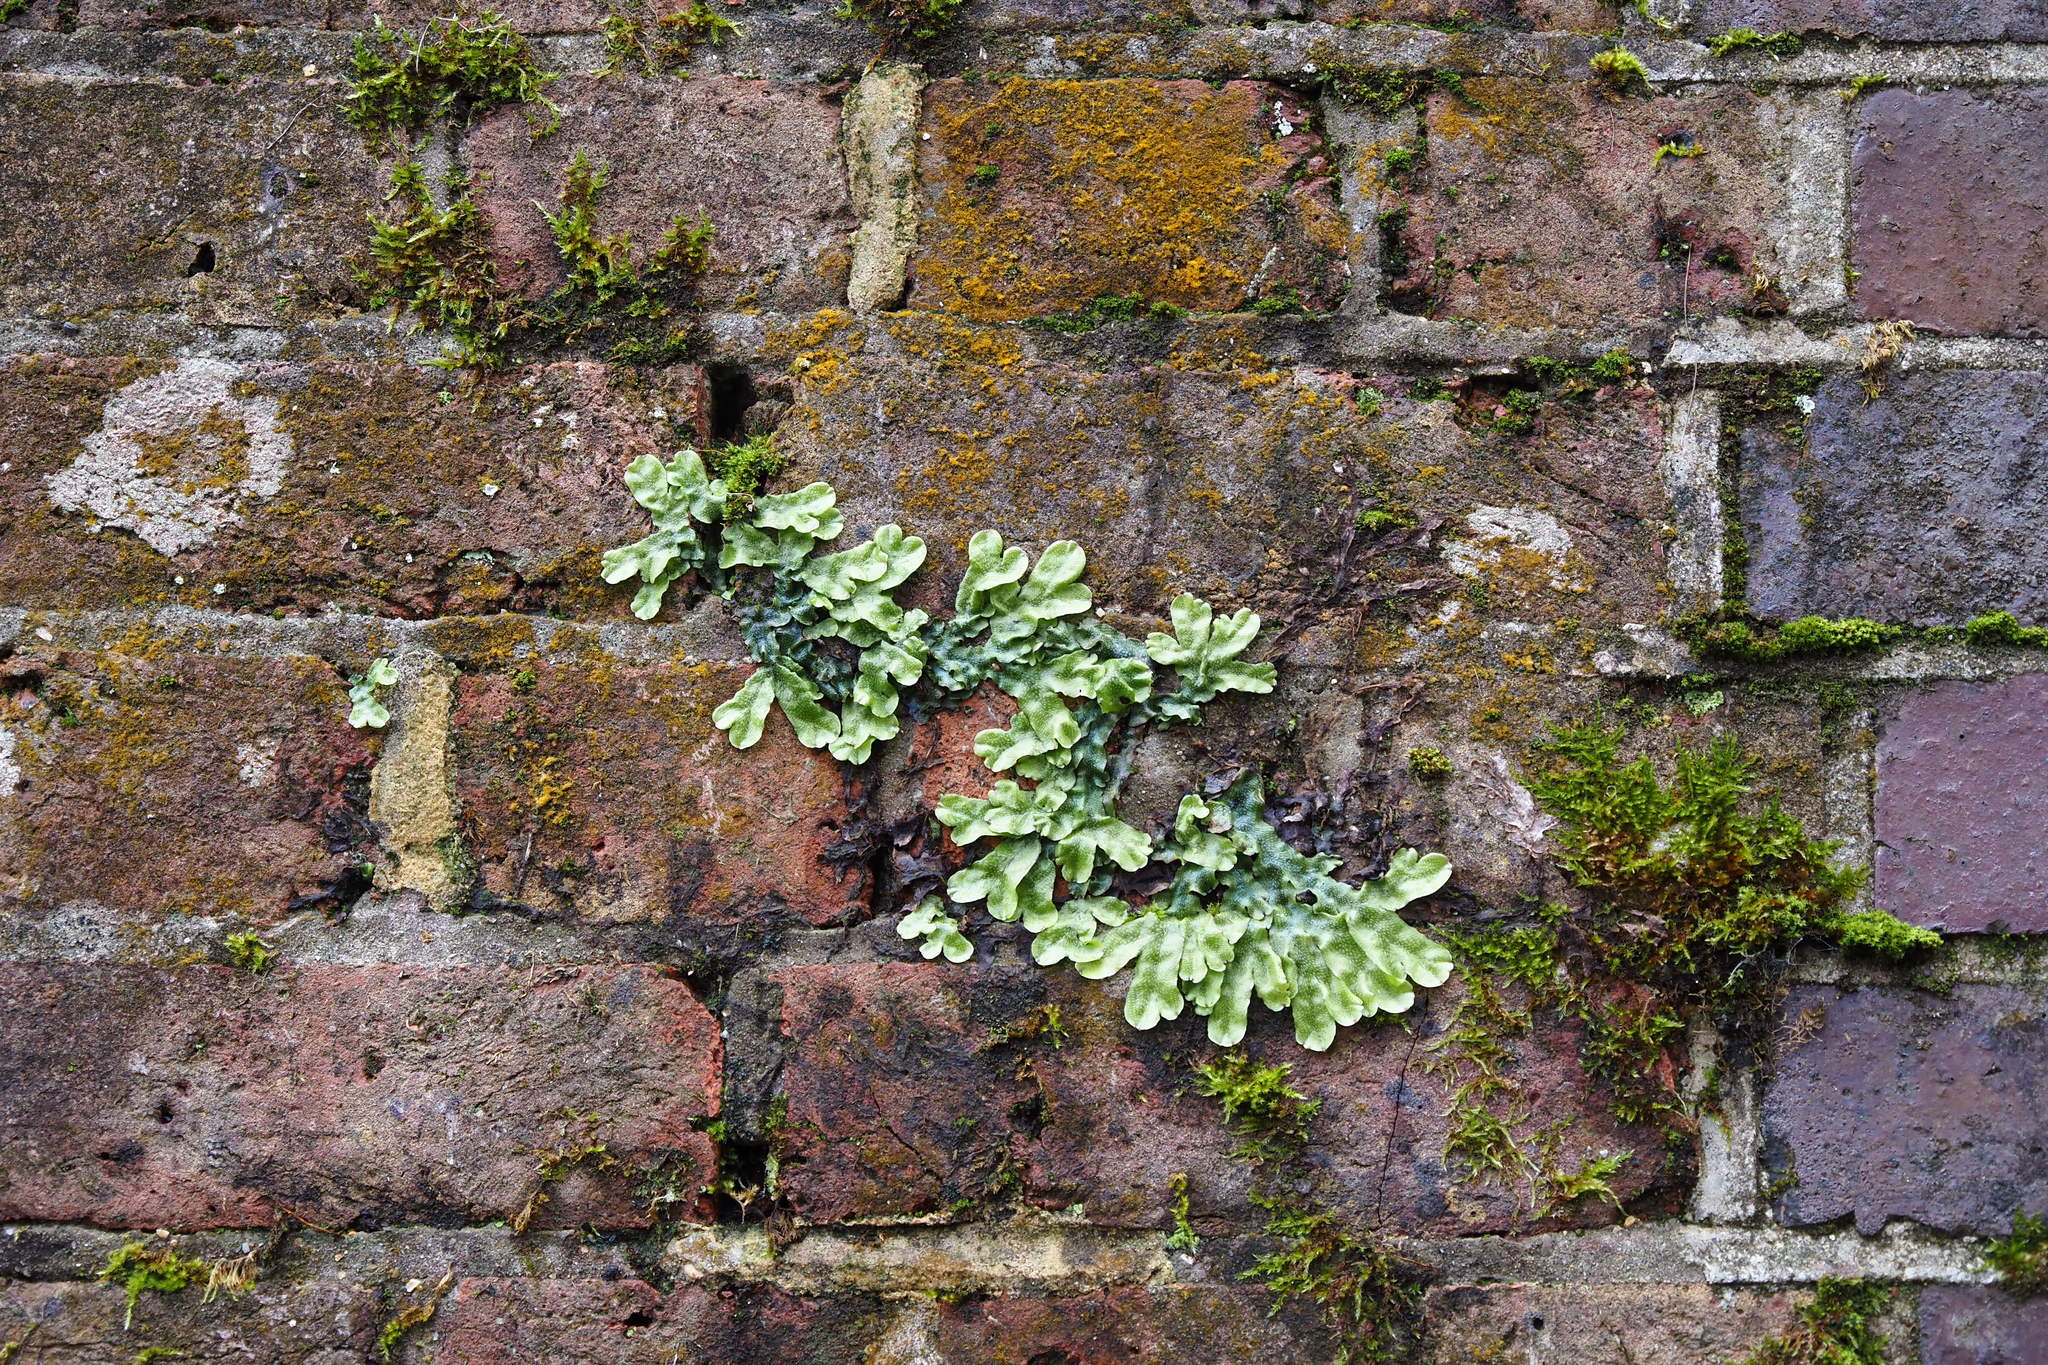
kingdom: Plantae
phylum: Marchantiophyta
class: Marchantiopsida
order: Marchantiales
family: Conocephalaceae
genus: Conocephalum
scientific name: Conocephalum conicum
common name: Great scented liverwort
